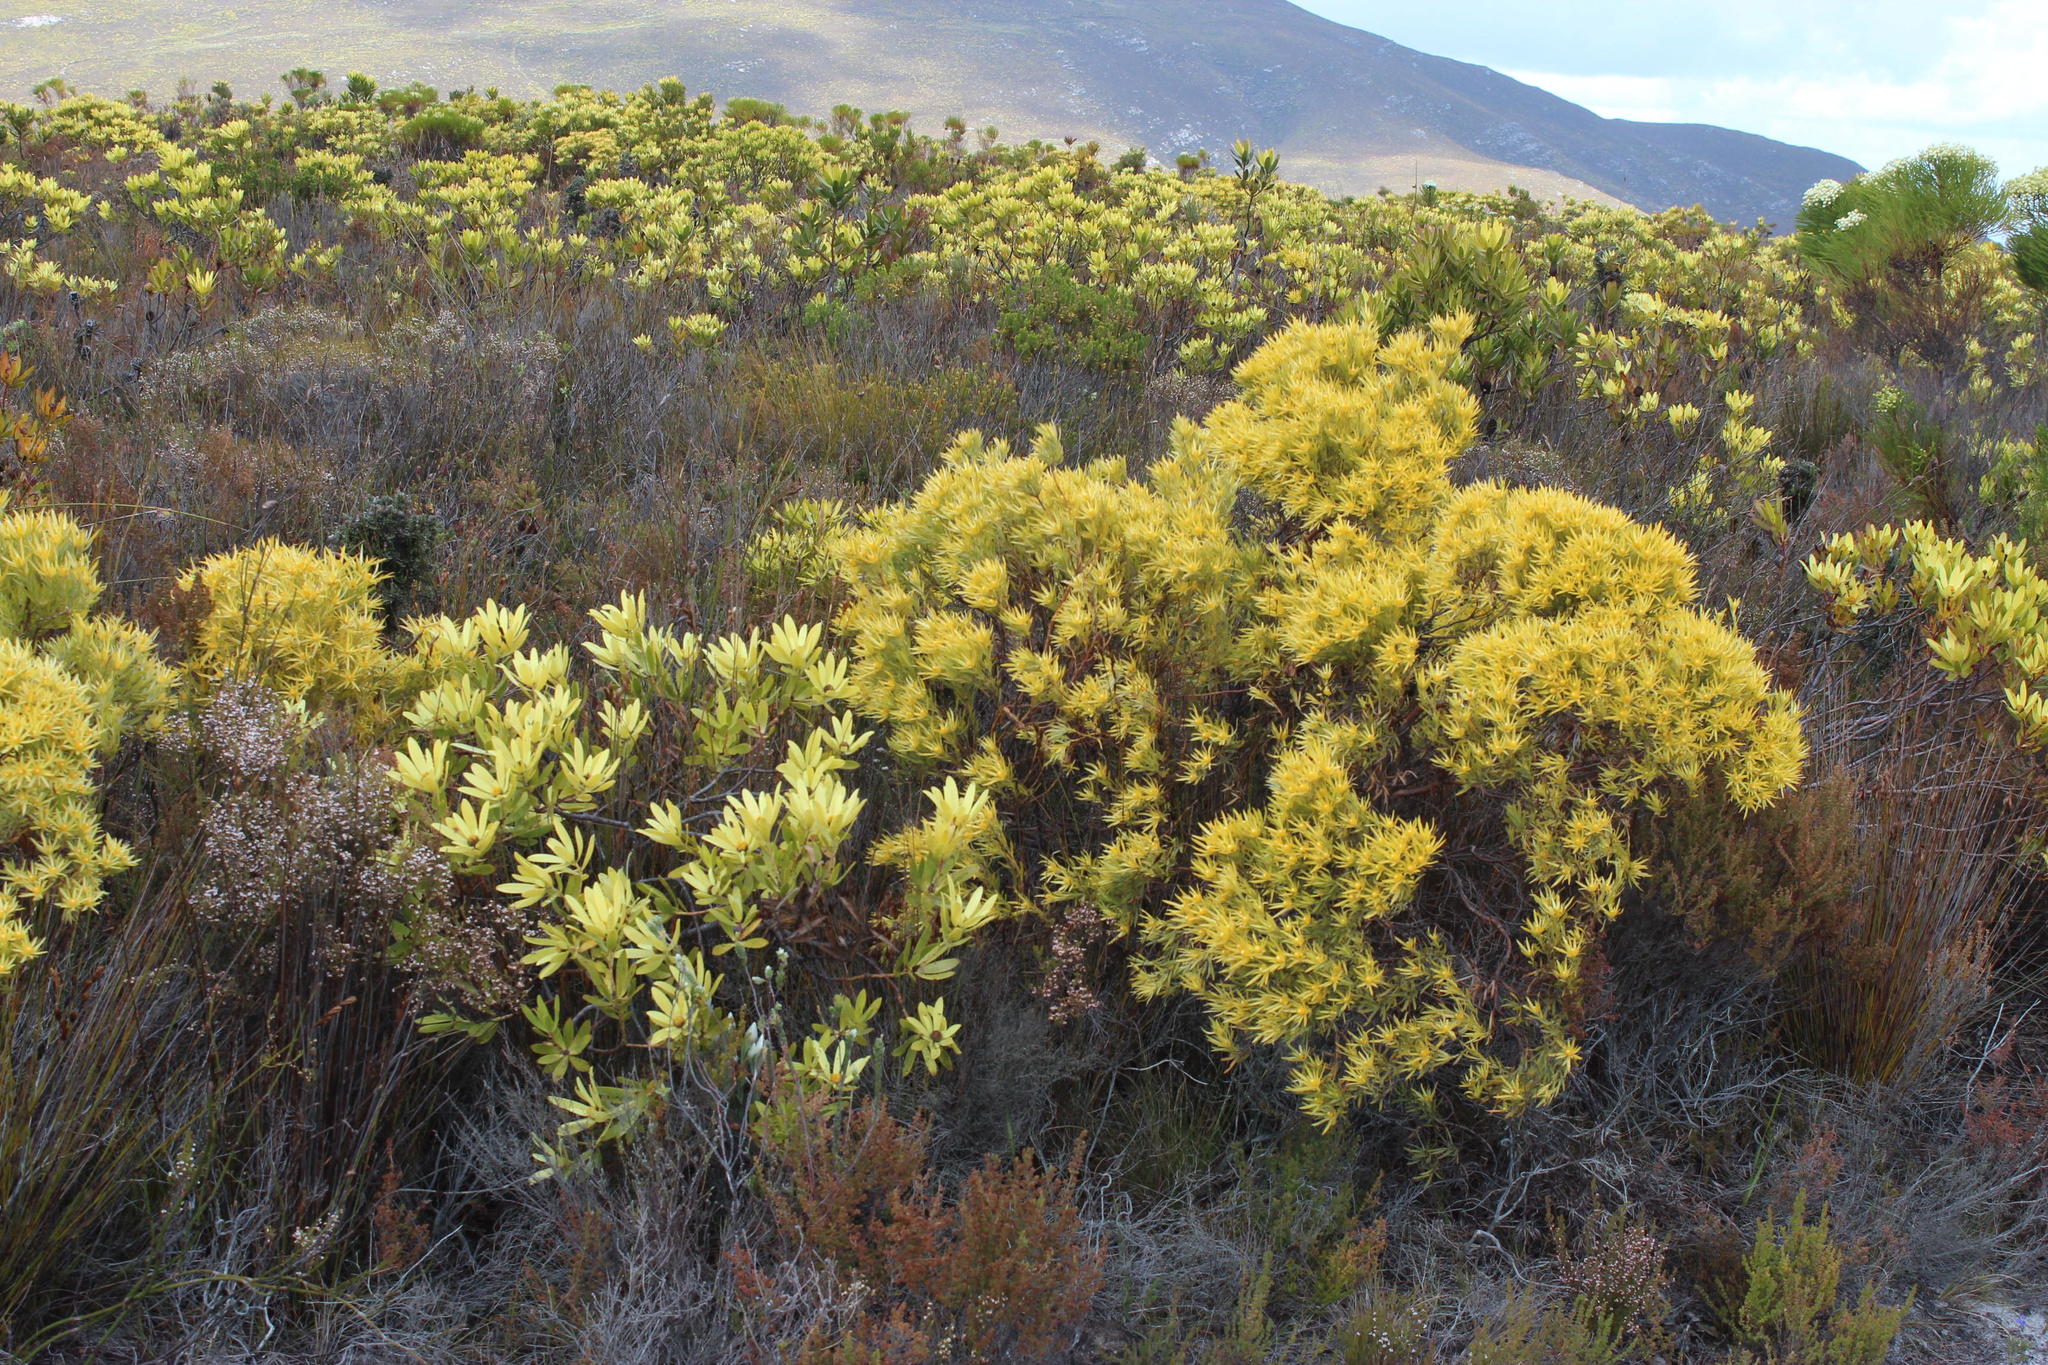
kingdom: Plantae
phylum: Tracheophyta
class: Magnoliopsida
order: Proteales
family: Proteaceae
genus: Leucadendron
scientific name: Leucadendron gandogeri
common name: Broad-leaf conebush
